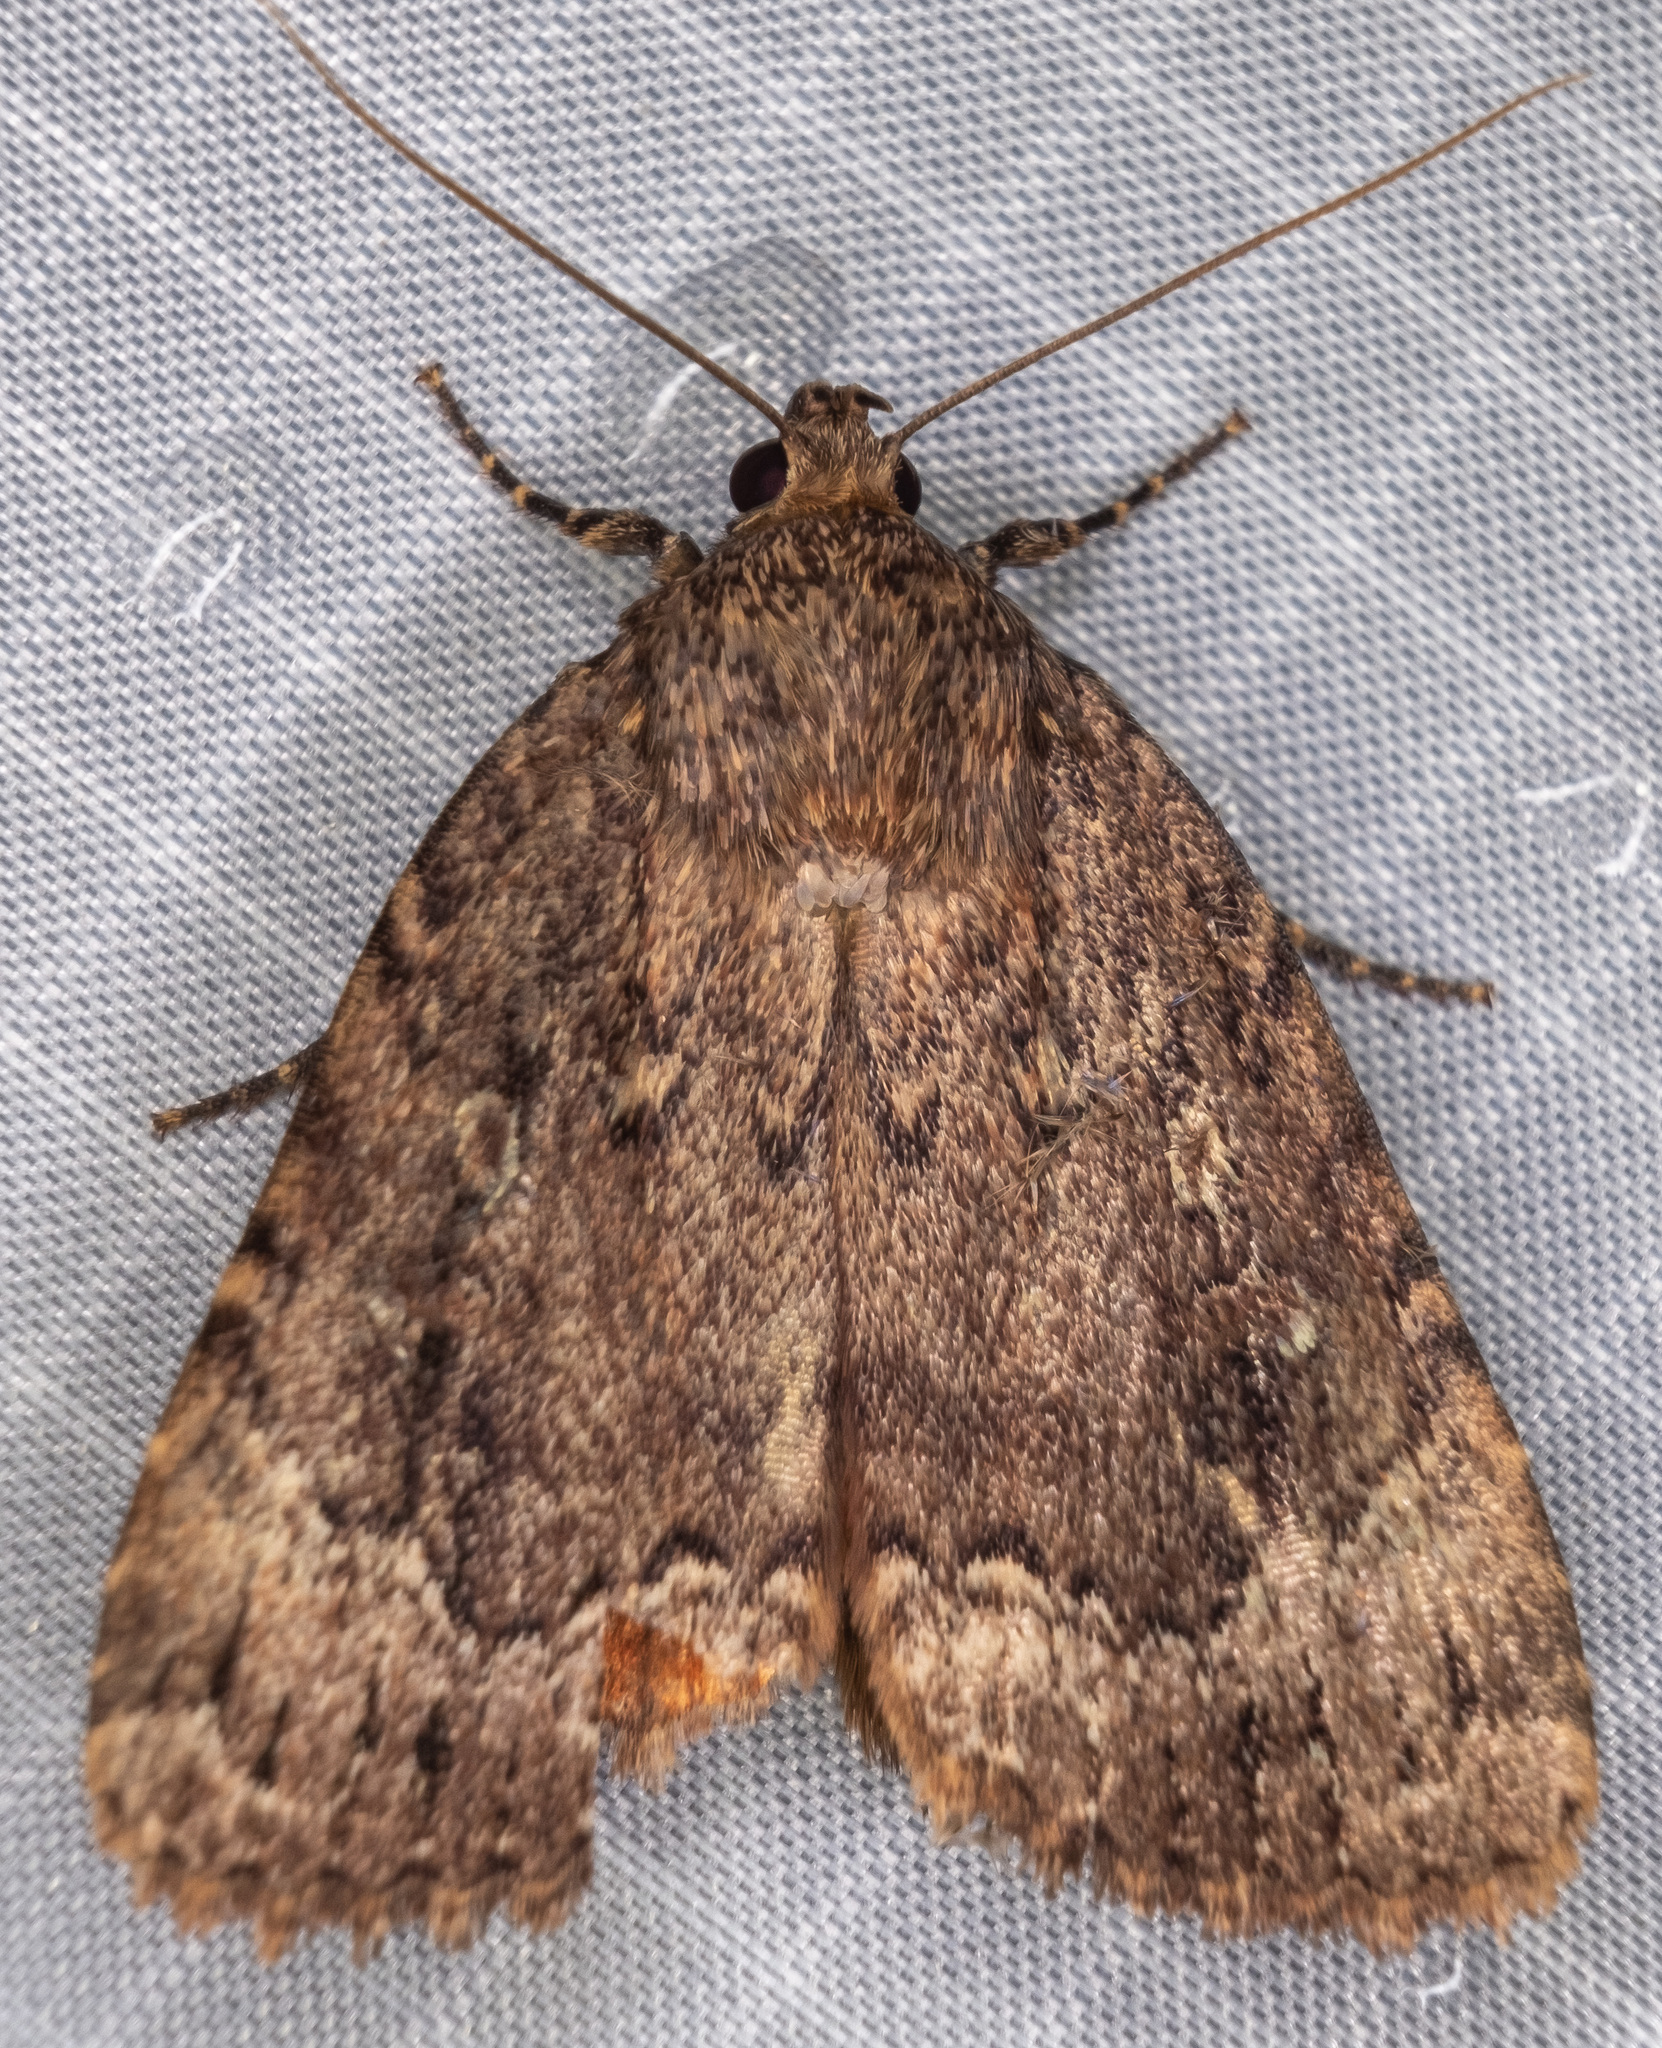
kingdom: Animalia
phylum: Arthropoda
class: Insecta
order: Lepidoptera
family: Noctuidae
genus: Amphipyra
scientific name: Amphipyra pyramidoides
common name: American copper underwing
